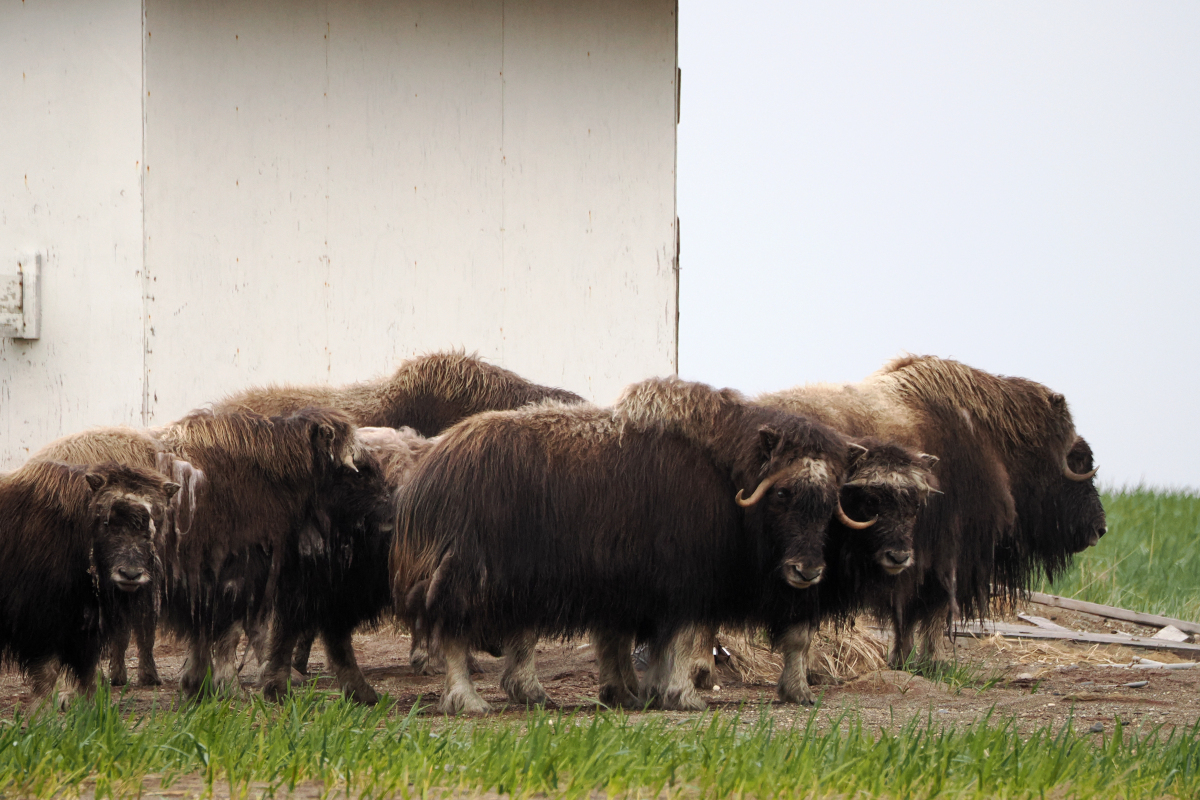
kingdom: Animalia
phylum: Chordata
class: Mammalia
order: Artiodactyla
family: Bovidae
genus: Ovibos
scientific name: Ovibos moschatus
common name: Muskox
